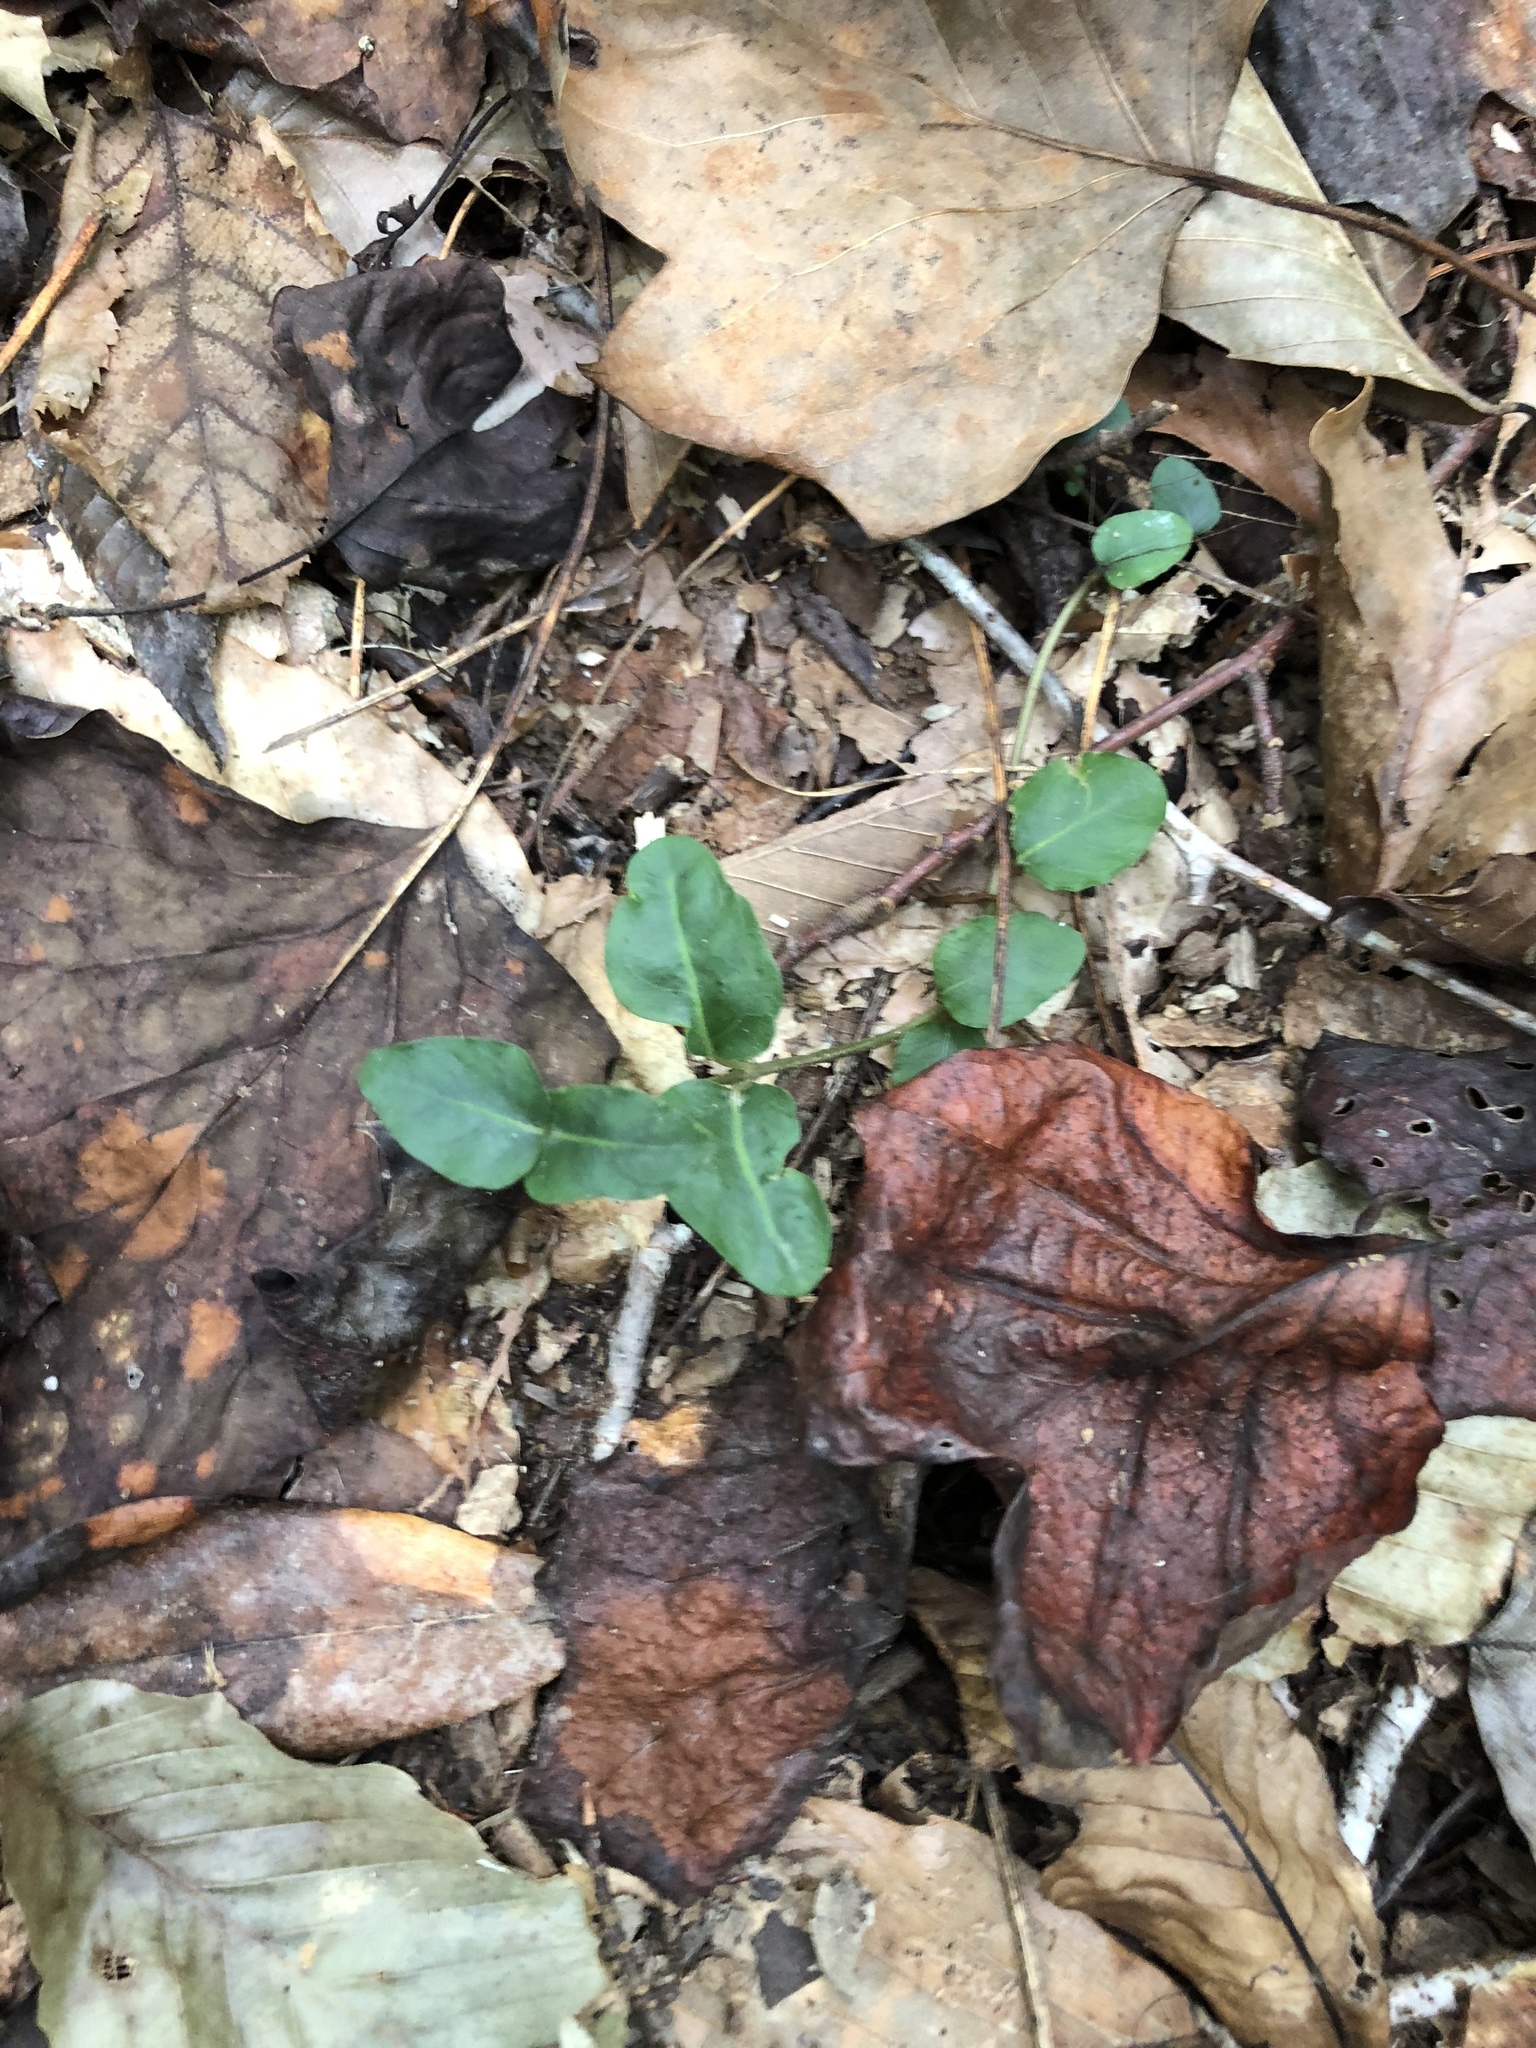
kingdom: Plantae
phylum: Tracheophyta
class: Magnoliopsida
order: Gentianales
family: Rubiaceae
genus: Mitchella
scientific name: Mitchella repens
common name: Partridge-berry
